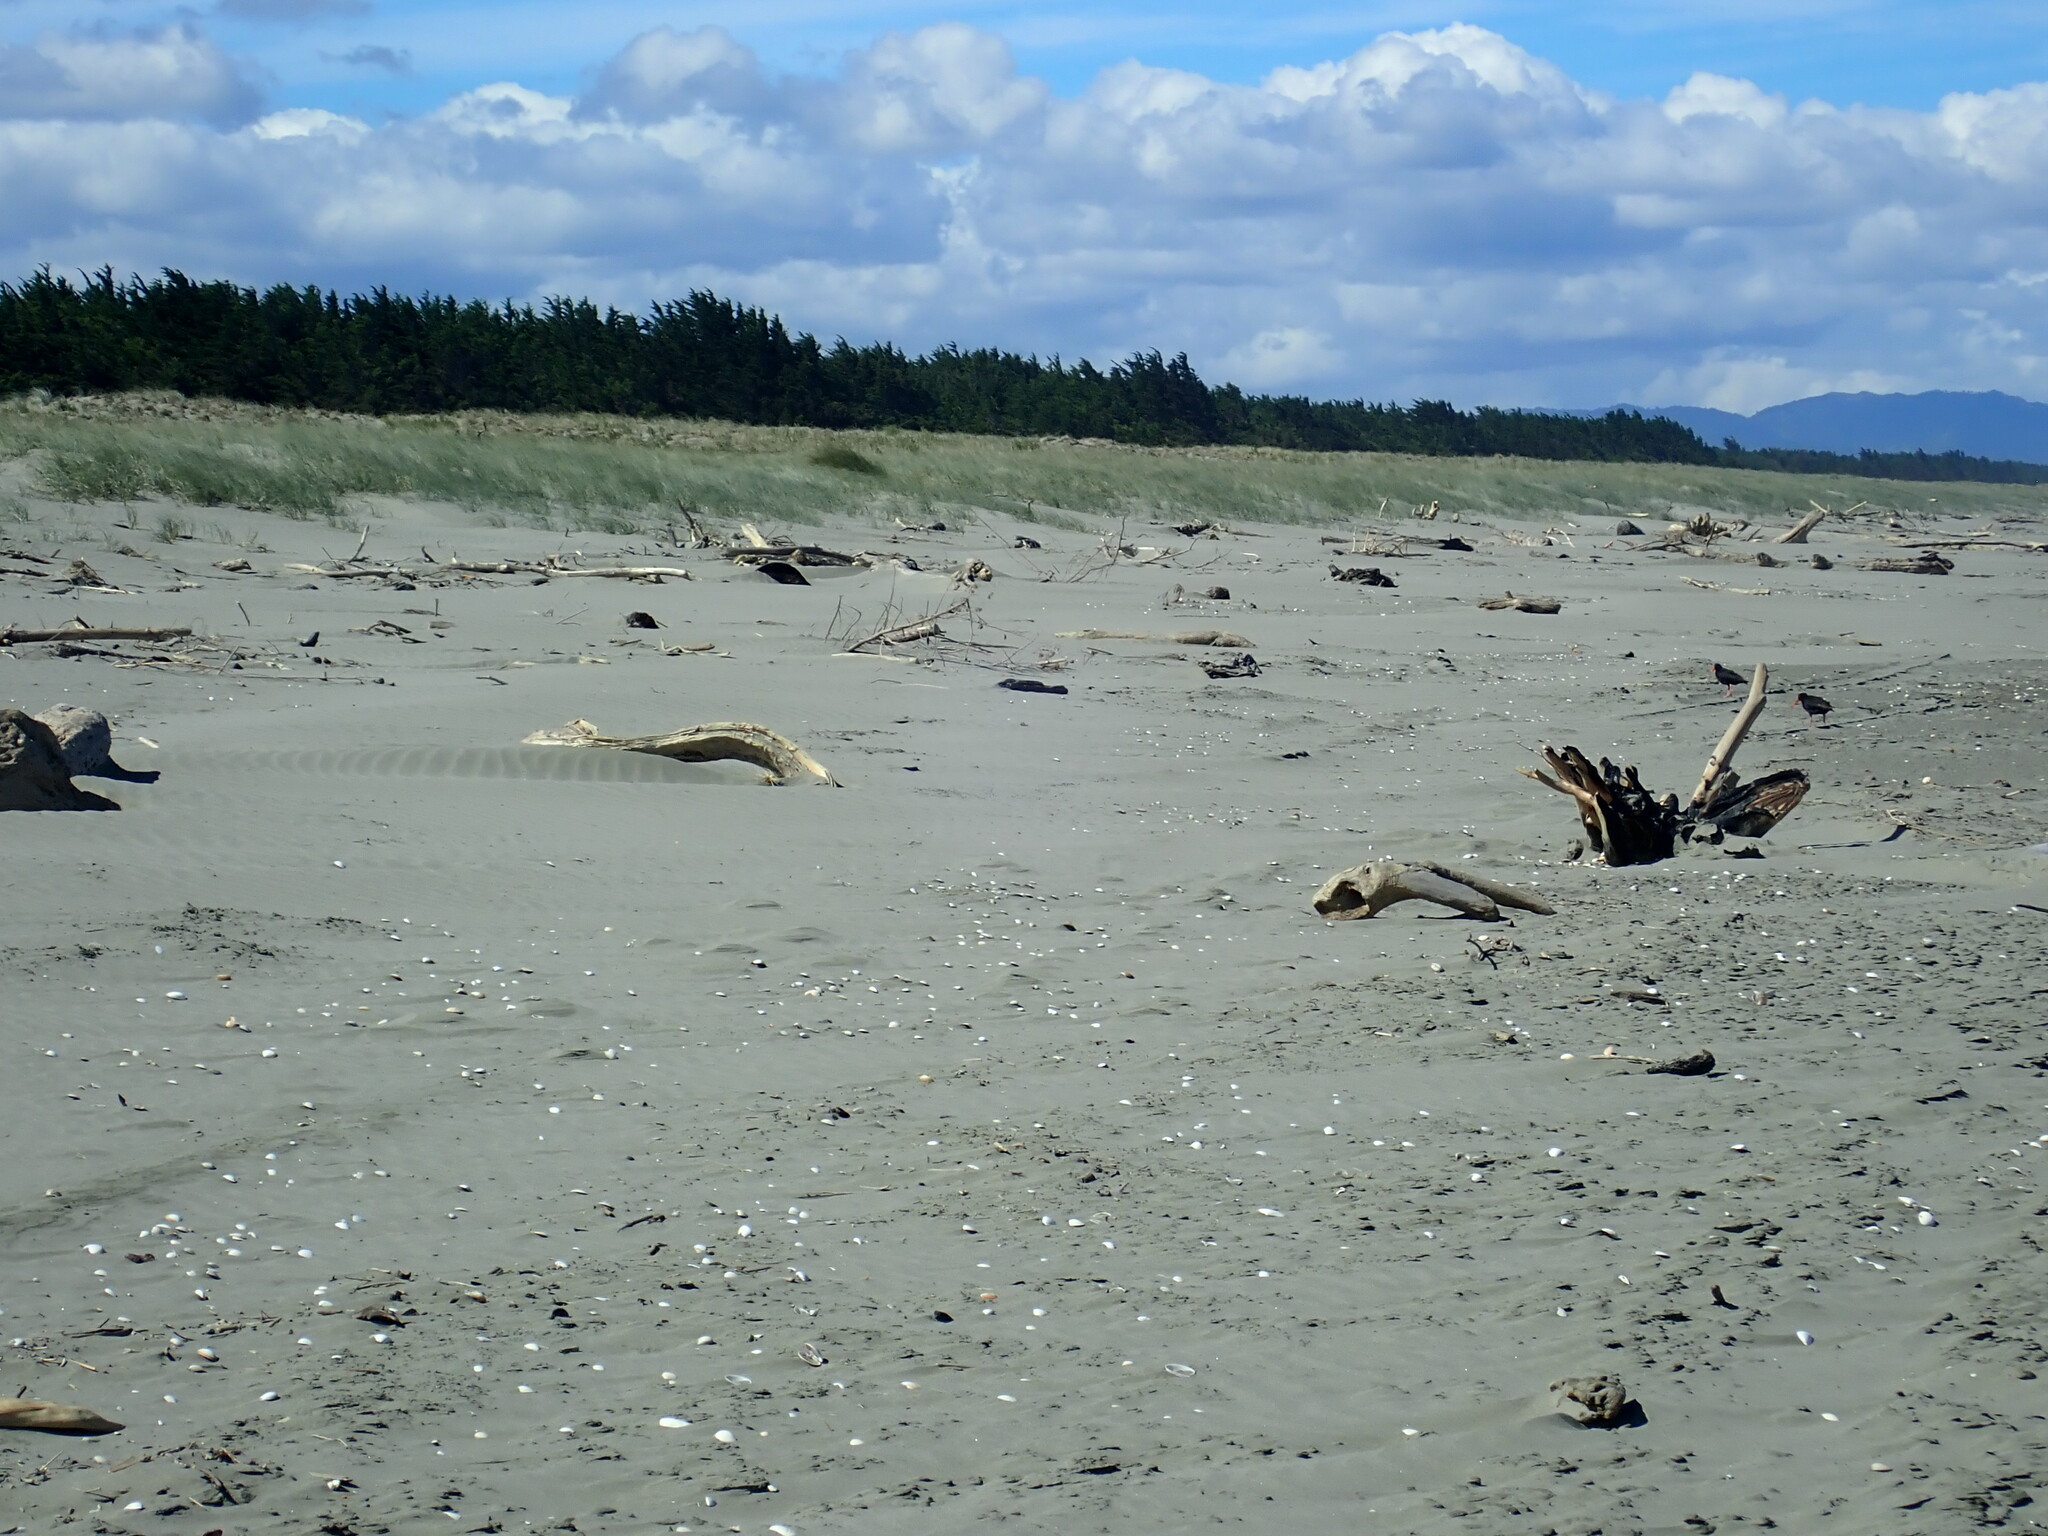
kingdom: Animalia
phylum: Chordata
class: Aves
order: Charadriiformes
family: Haematopodidae
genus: Haematopus
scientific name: Haematopus unicolor
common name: Variable oystercatcher
